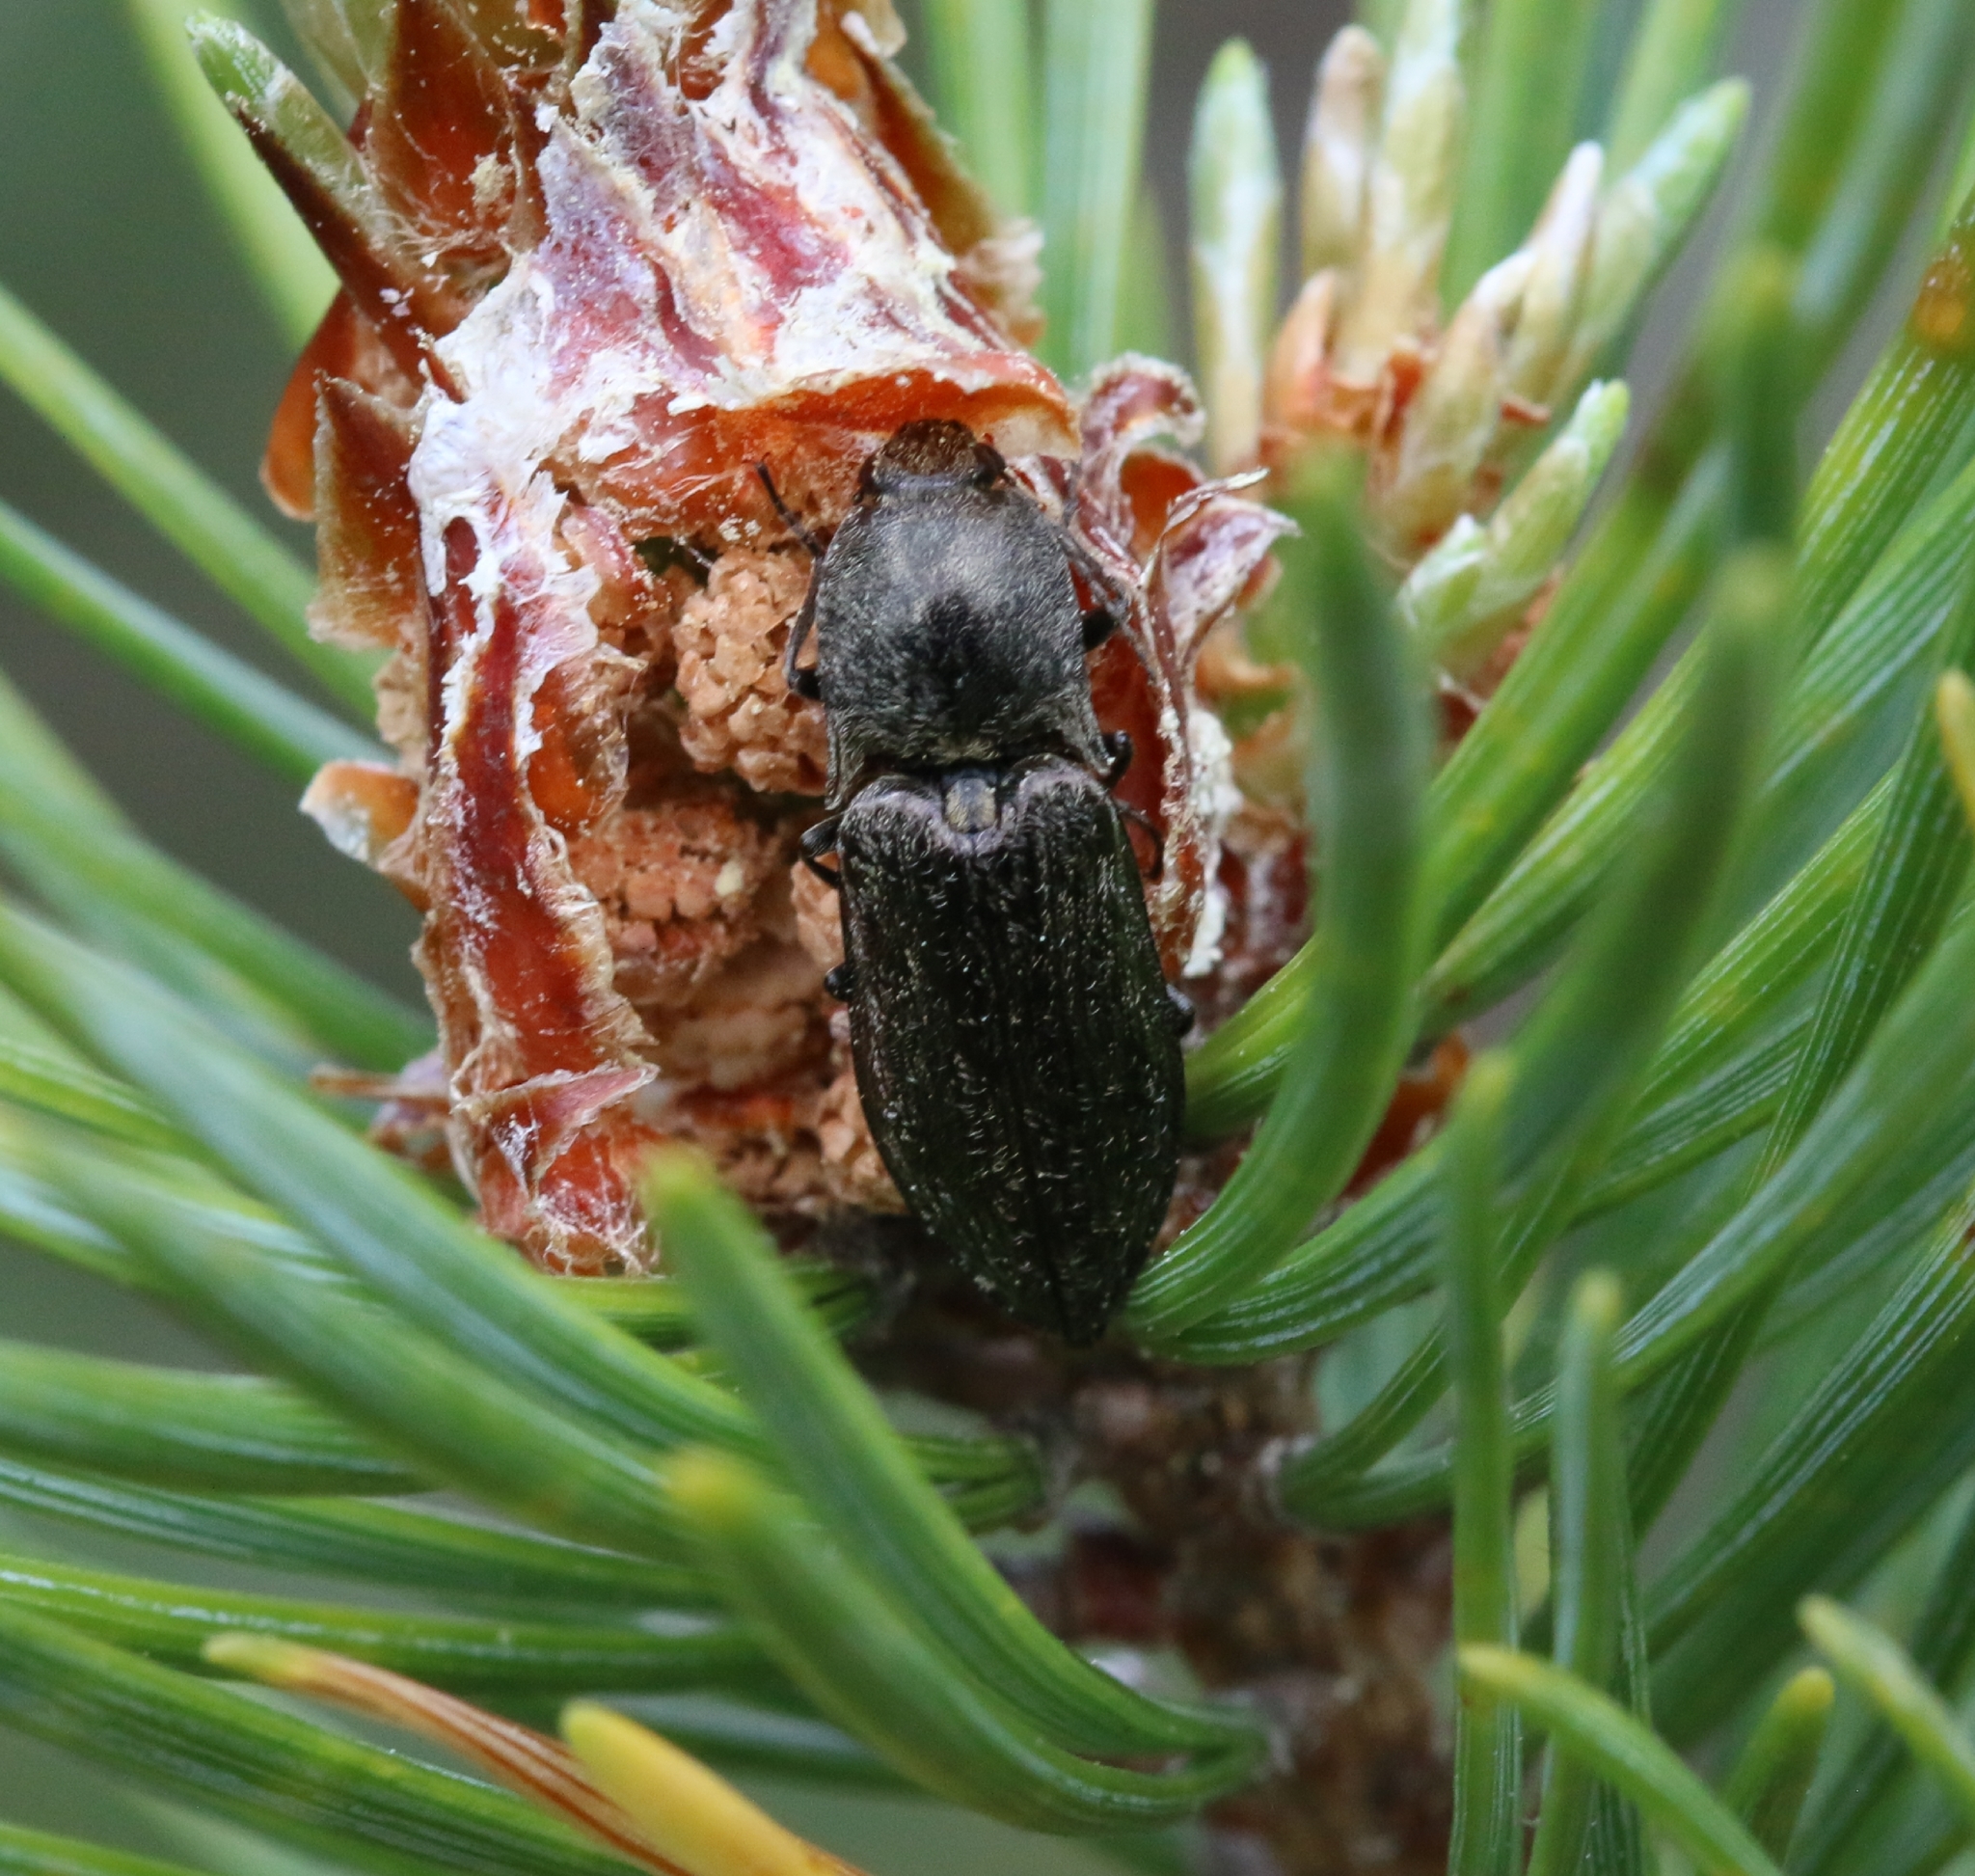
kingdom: Animalia
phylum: Arthropoda
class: Insecta
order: Coleoptera
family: Elateridae
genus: Paraphotistus
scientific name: Paraphotistus impressus
